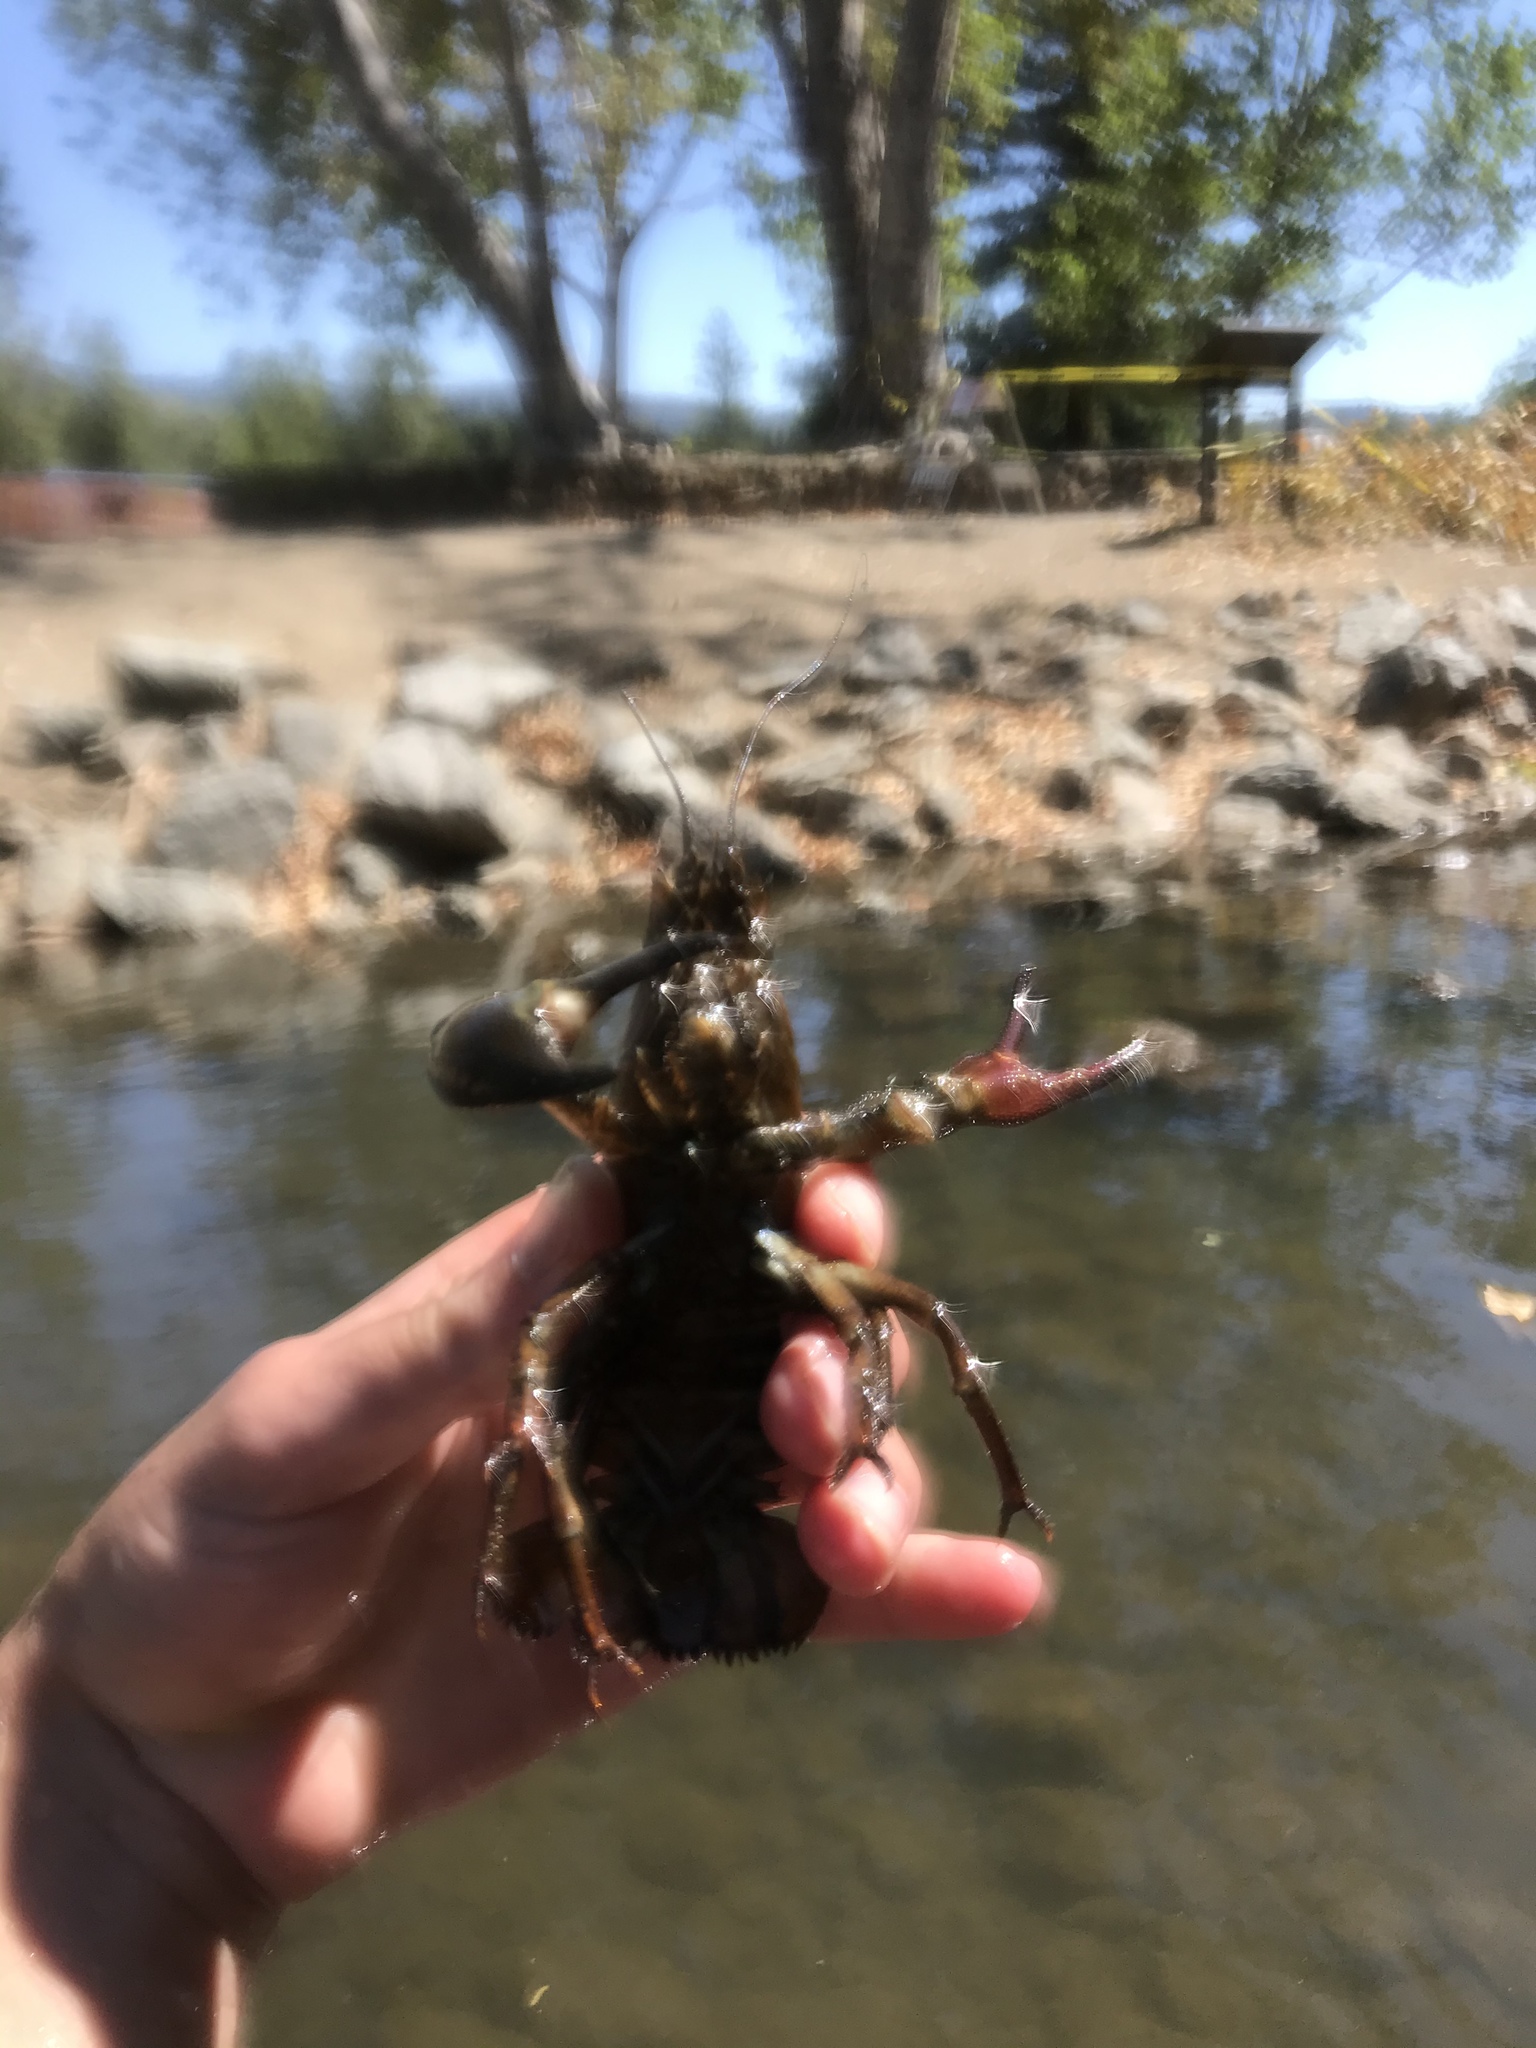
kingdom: Animalia
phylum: Arthropoda
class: Malacostraca
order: Decapoda
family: Astacidae
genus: Pacifastacus
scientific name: Pacifastacus leniusculus
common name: Signal crayfish
